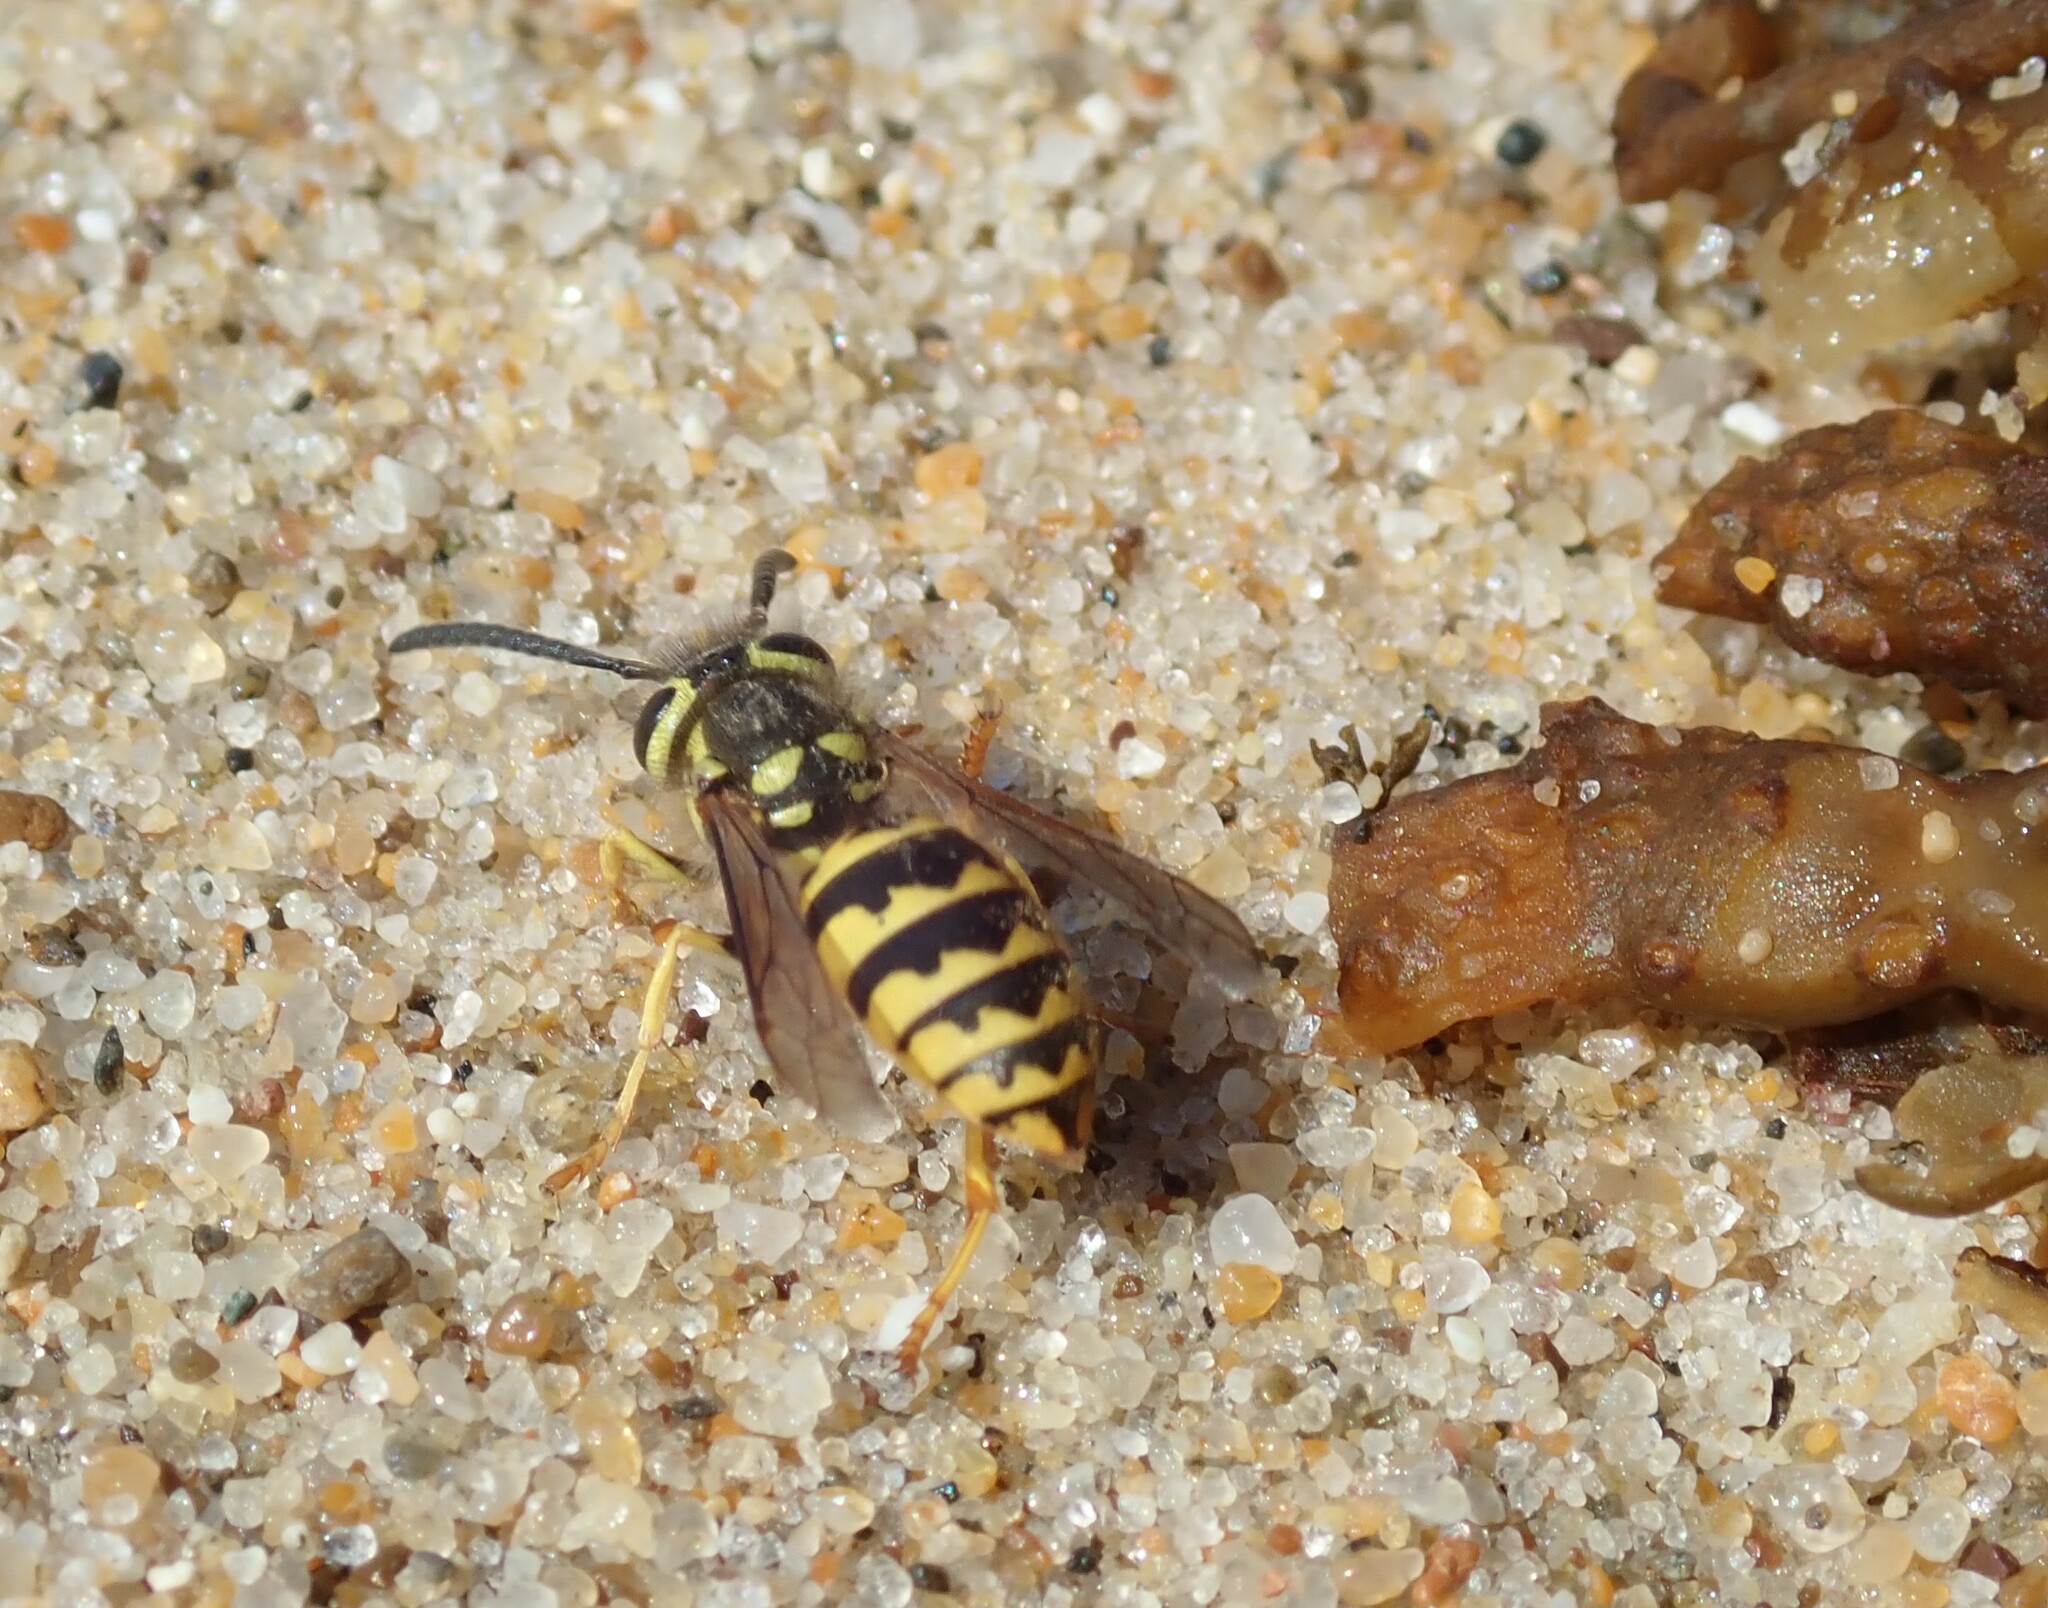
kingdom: Animalia
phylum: Arthropoda
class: Insecta
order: Hymenoptera
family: Vespidae
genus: Vespula
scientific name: Vespula pensylvanica
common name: Western yellowjacket
